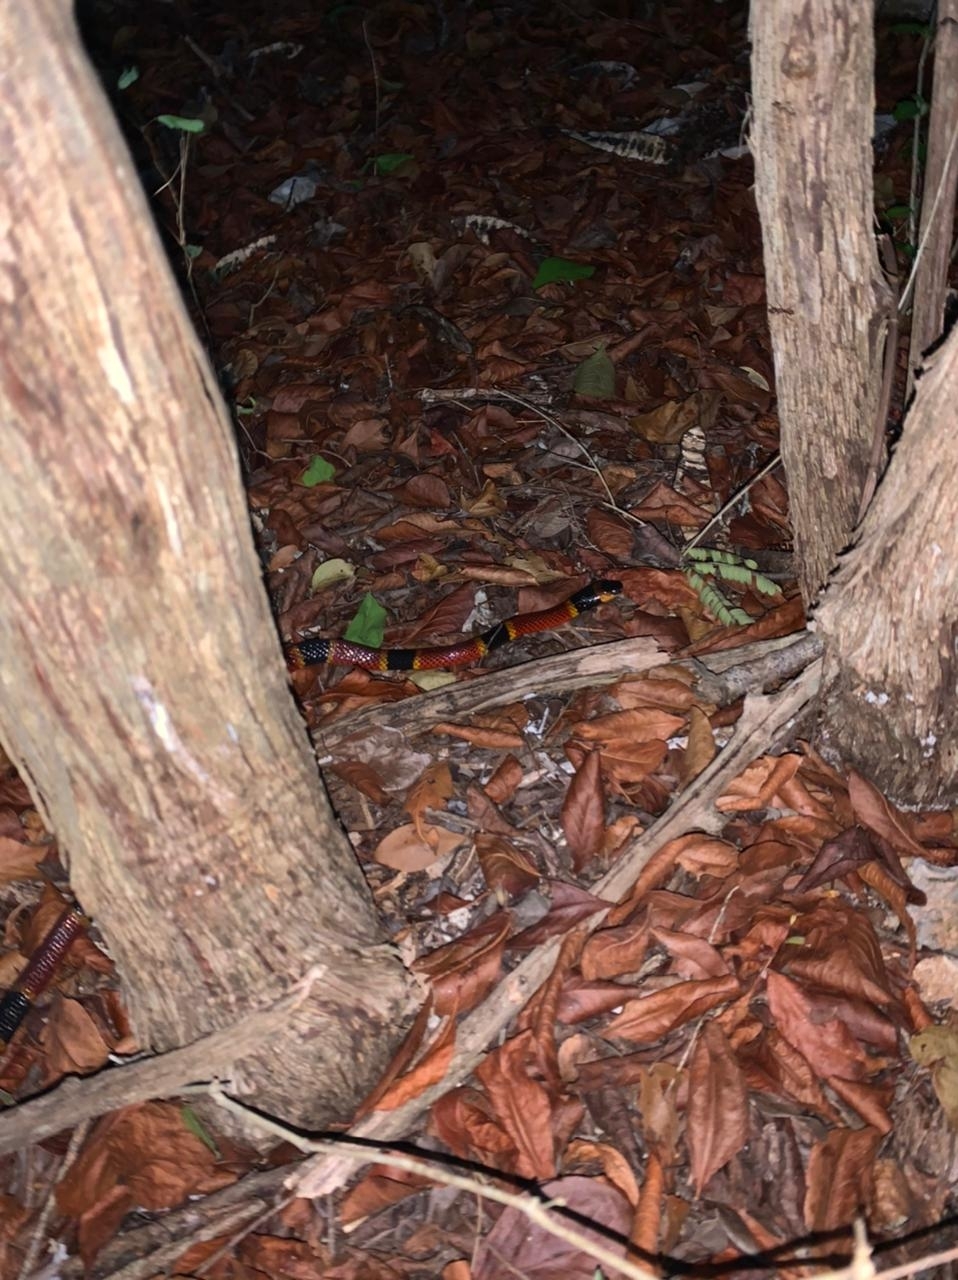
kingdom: Animalia
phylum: Chordata
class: Squamata
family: Elapidae
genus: Micrurus
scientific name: Micrurus diastema
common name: Diastema coral snake
